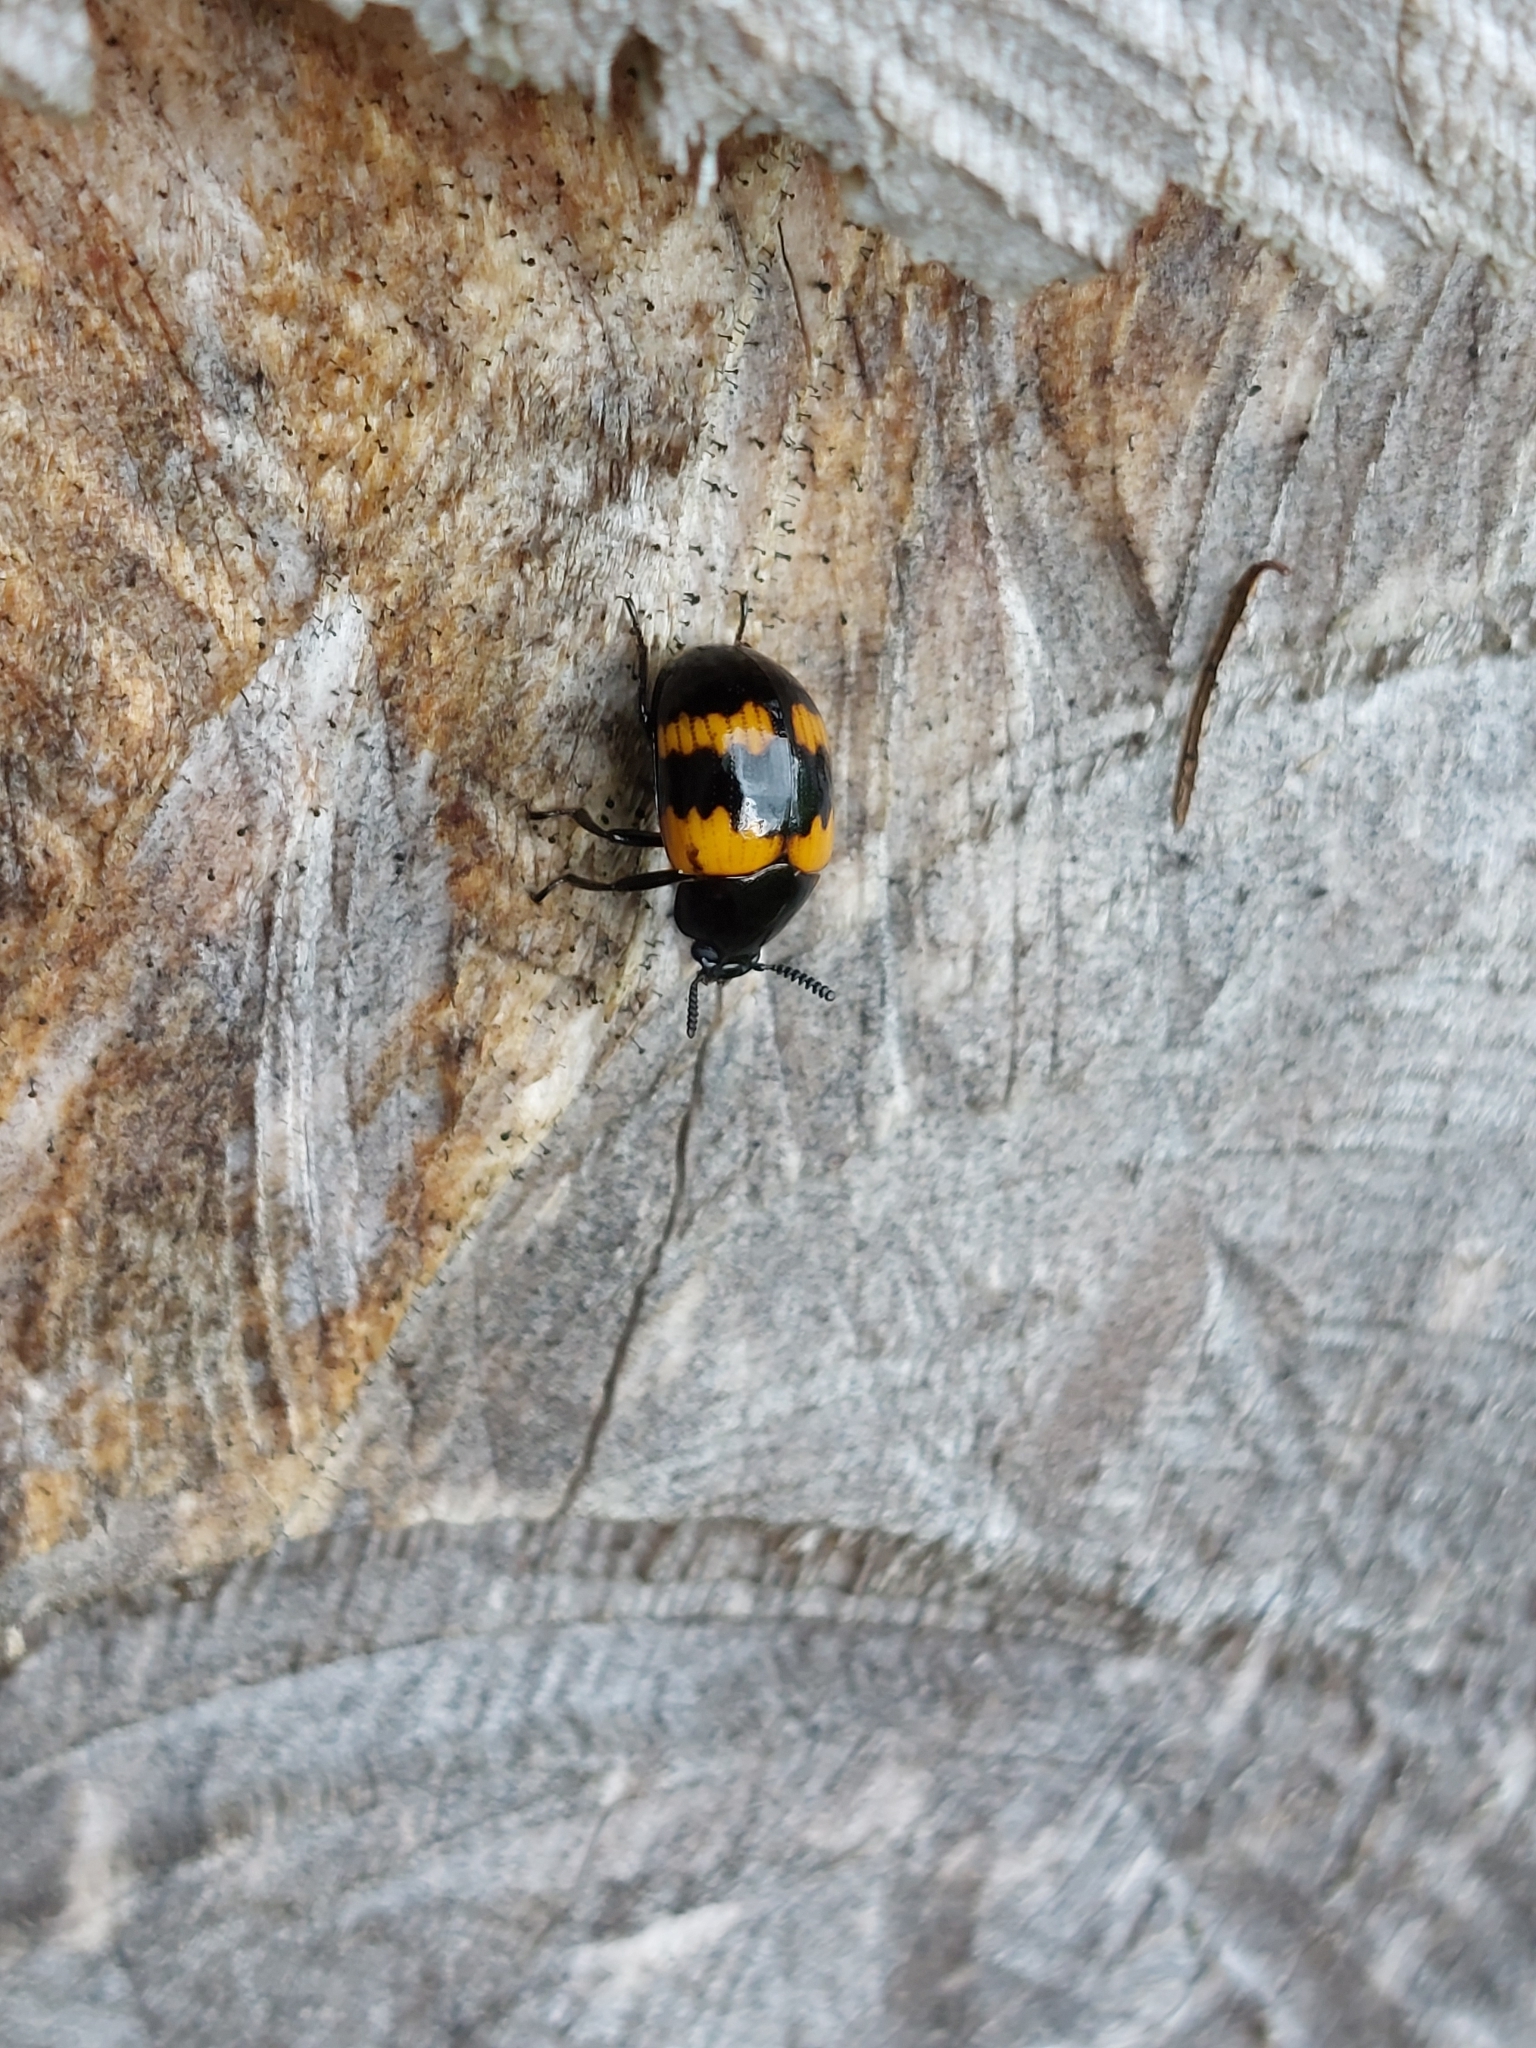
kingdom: Animalia
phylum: Arthropoda
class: Insecta
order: Coleoptera
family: Tenebrionidae
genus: Diaperis
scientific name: Diaperis boleti
